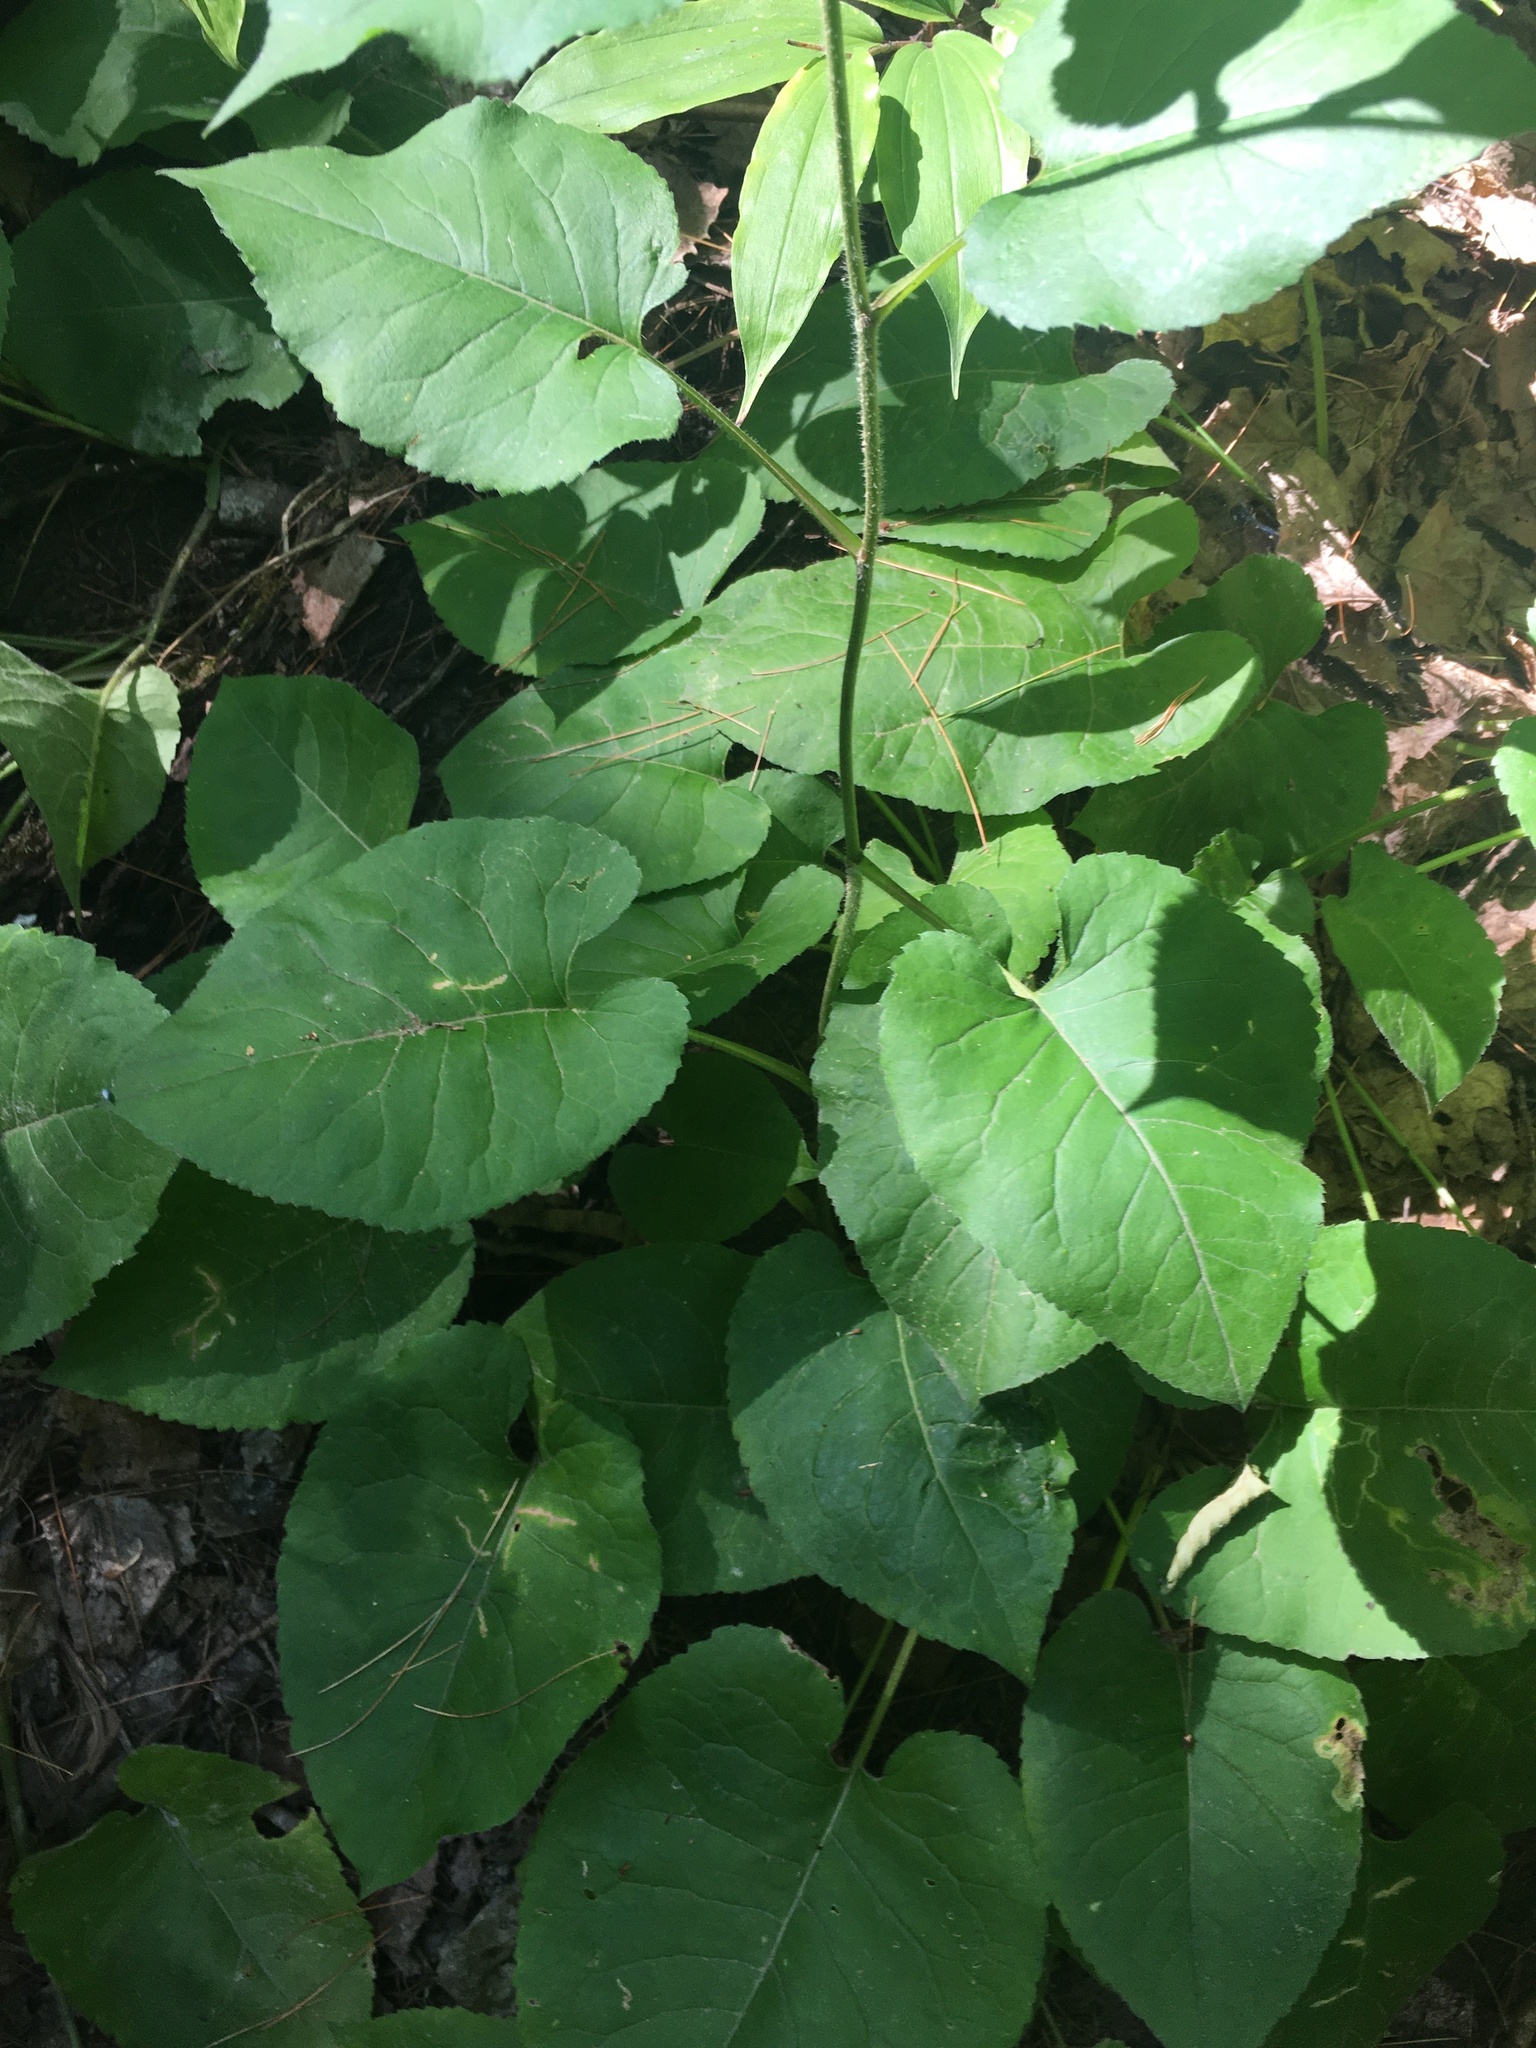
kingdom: Plantae
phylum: Tracheophyta
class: Magnoliopsida
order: Asterales
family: Asteraceae
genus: Eurybia
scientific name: Eurybia macrophylla
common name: Big-leaved aster
